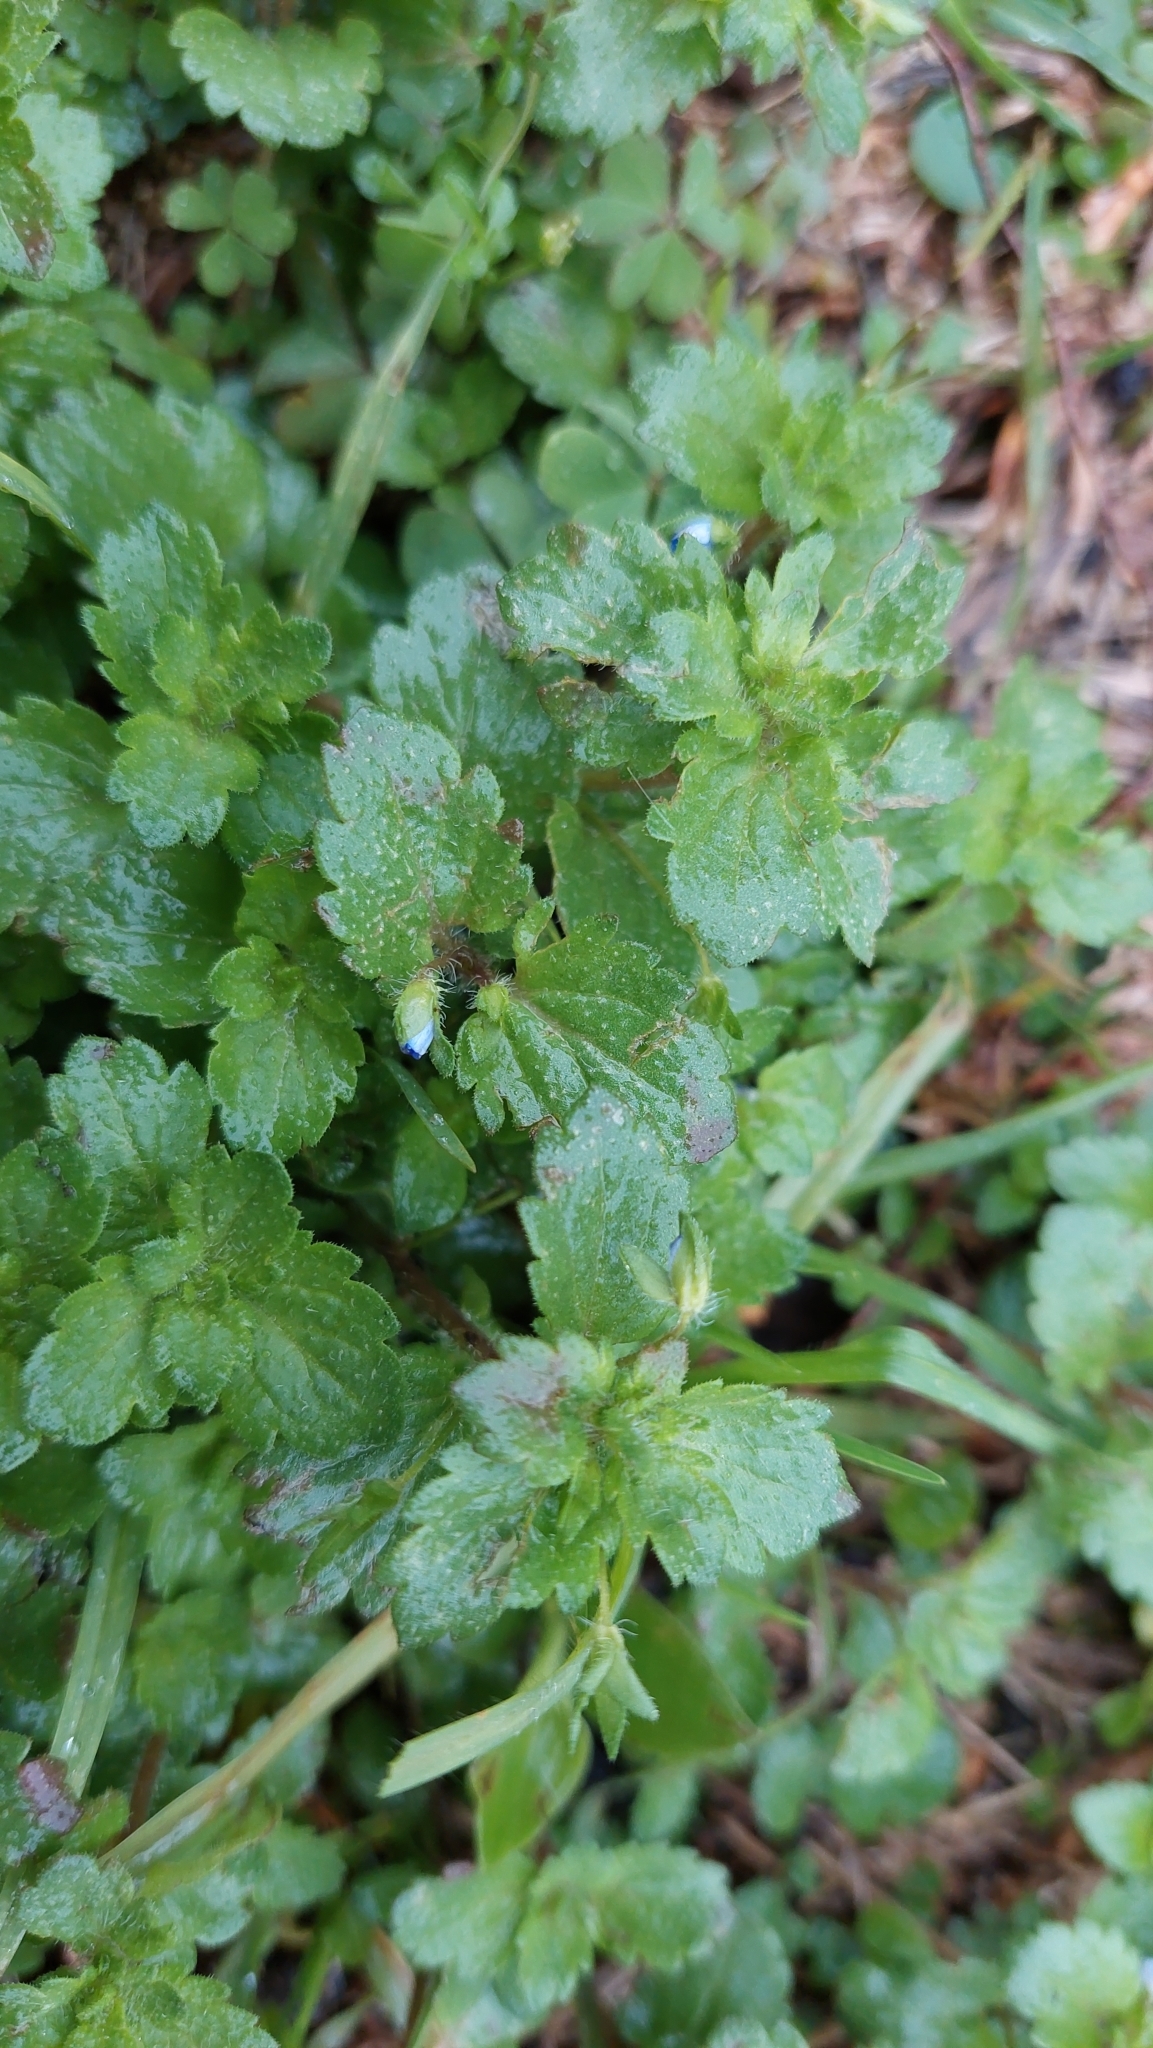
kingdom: Plantae
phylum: Tracheophyta
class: Magnoliopsida
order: Lamiales
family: Plantaginaceae
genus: Veronica
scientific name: Veronica persica
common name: Common field-speedwell
